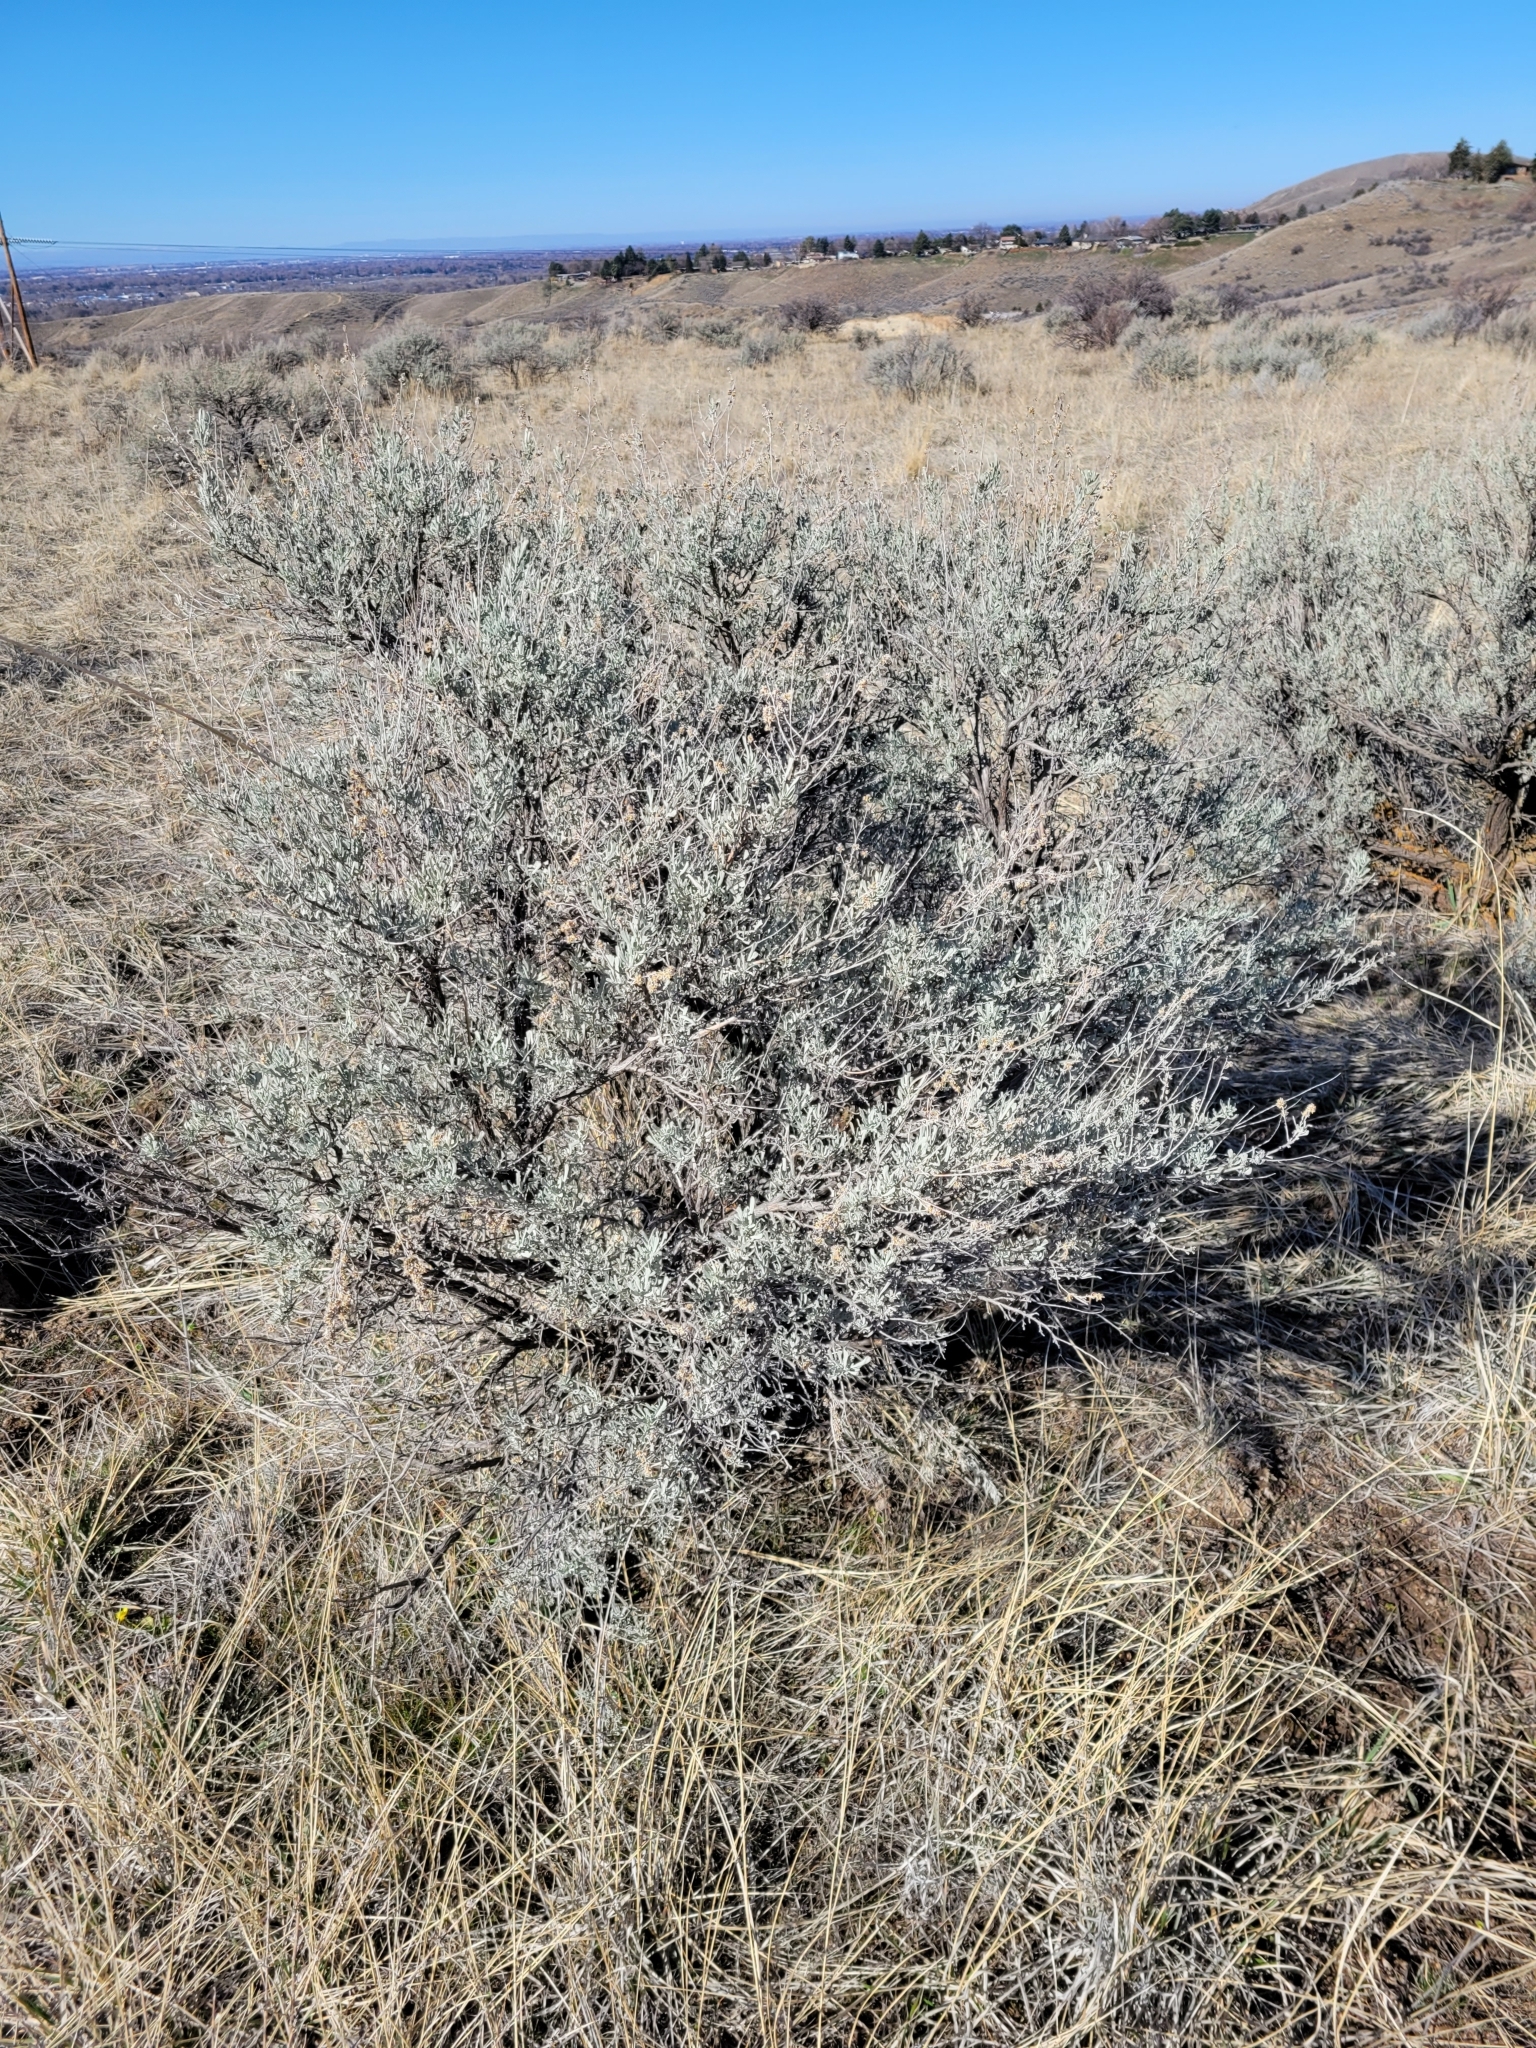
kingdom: Plantae
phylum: Tracheophyta
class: Magnoliopsida
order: Asterales
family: Asteraceae
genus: Artemisia
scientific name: Artemisia tridentata
